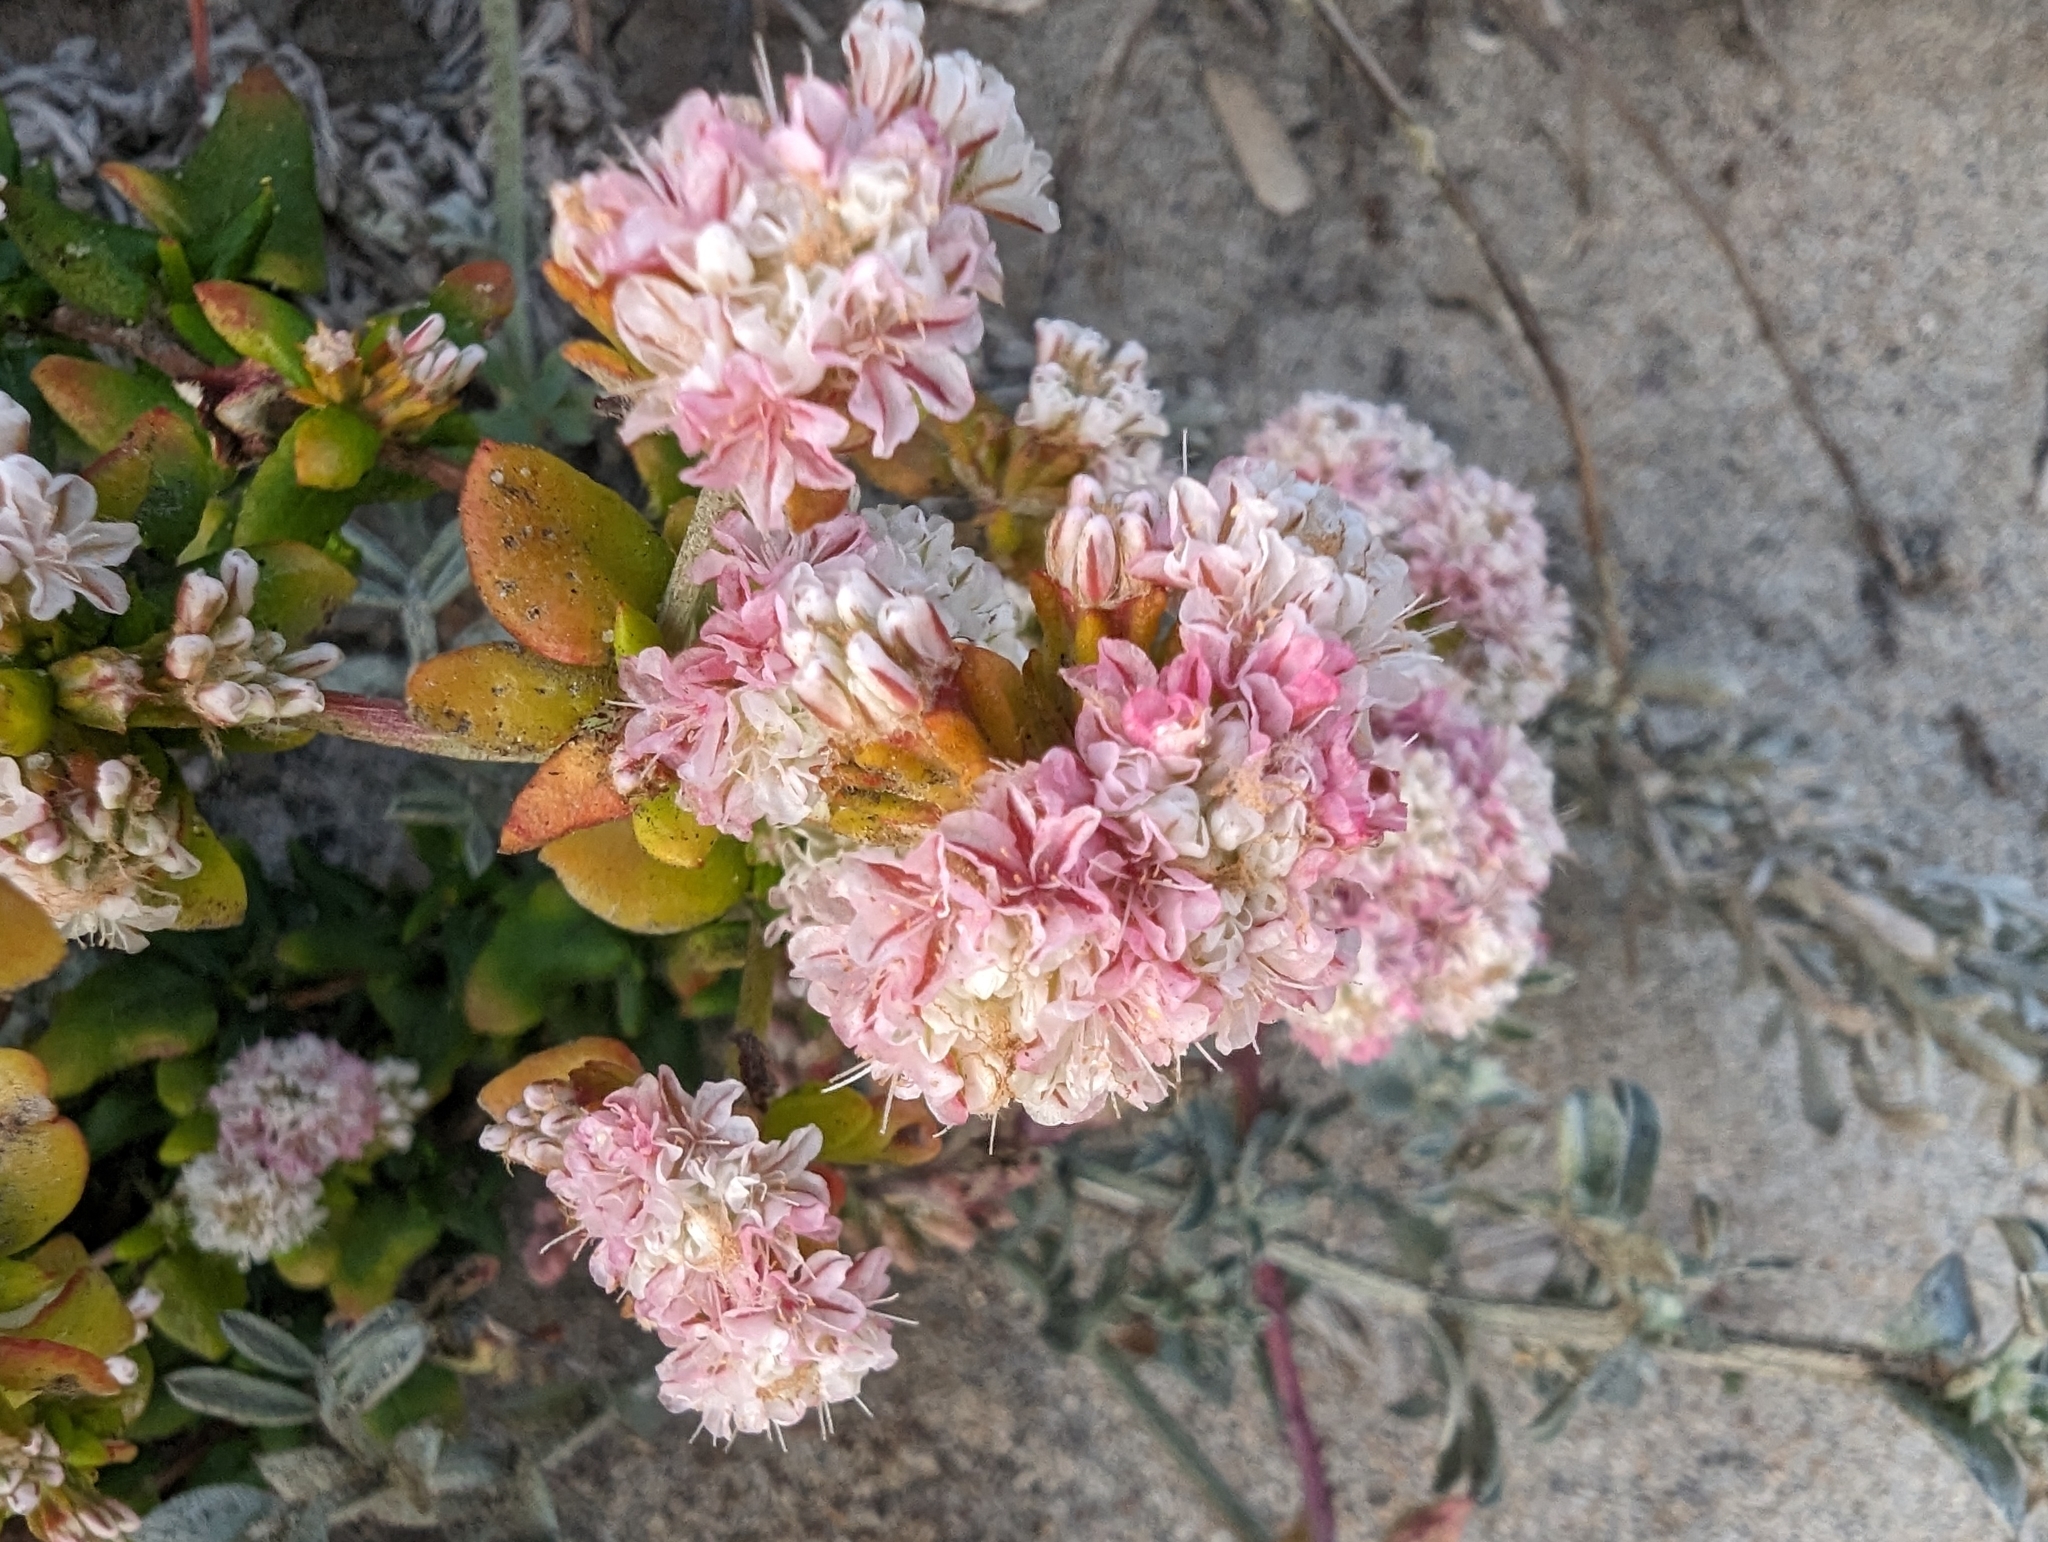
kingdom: Plantae
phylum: Tracheophyta
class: Magnoliopsida
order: Caryophyllales
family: Polygonaceae
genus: Eriogonum
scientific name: Eriogonum parvifolium
